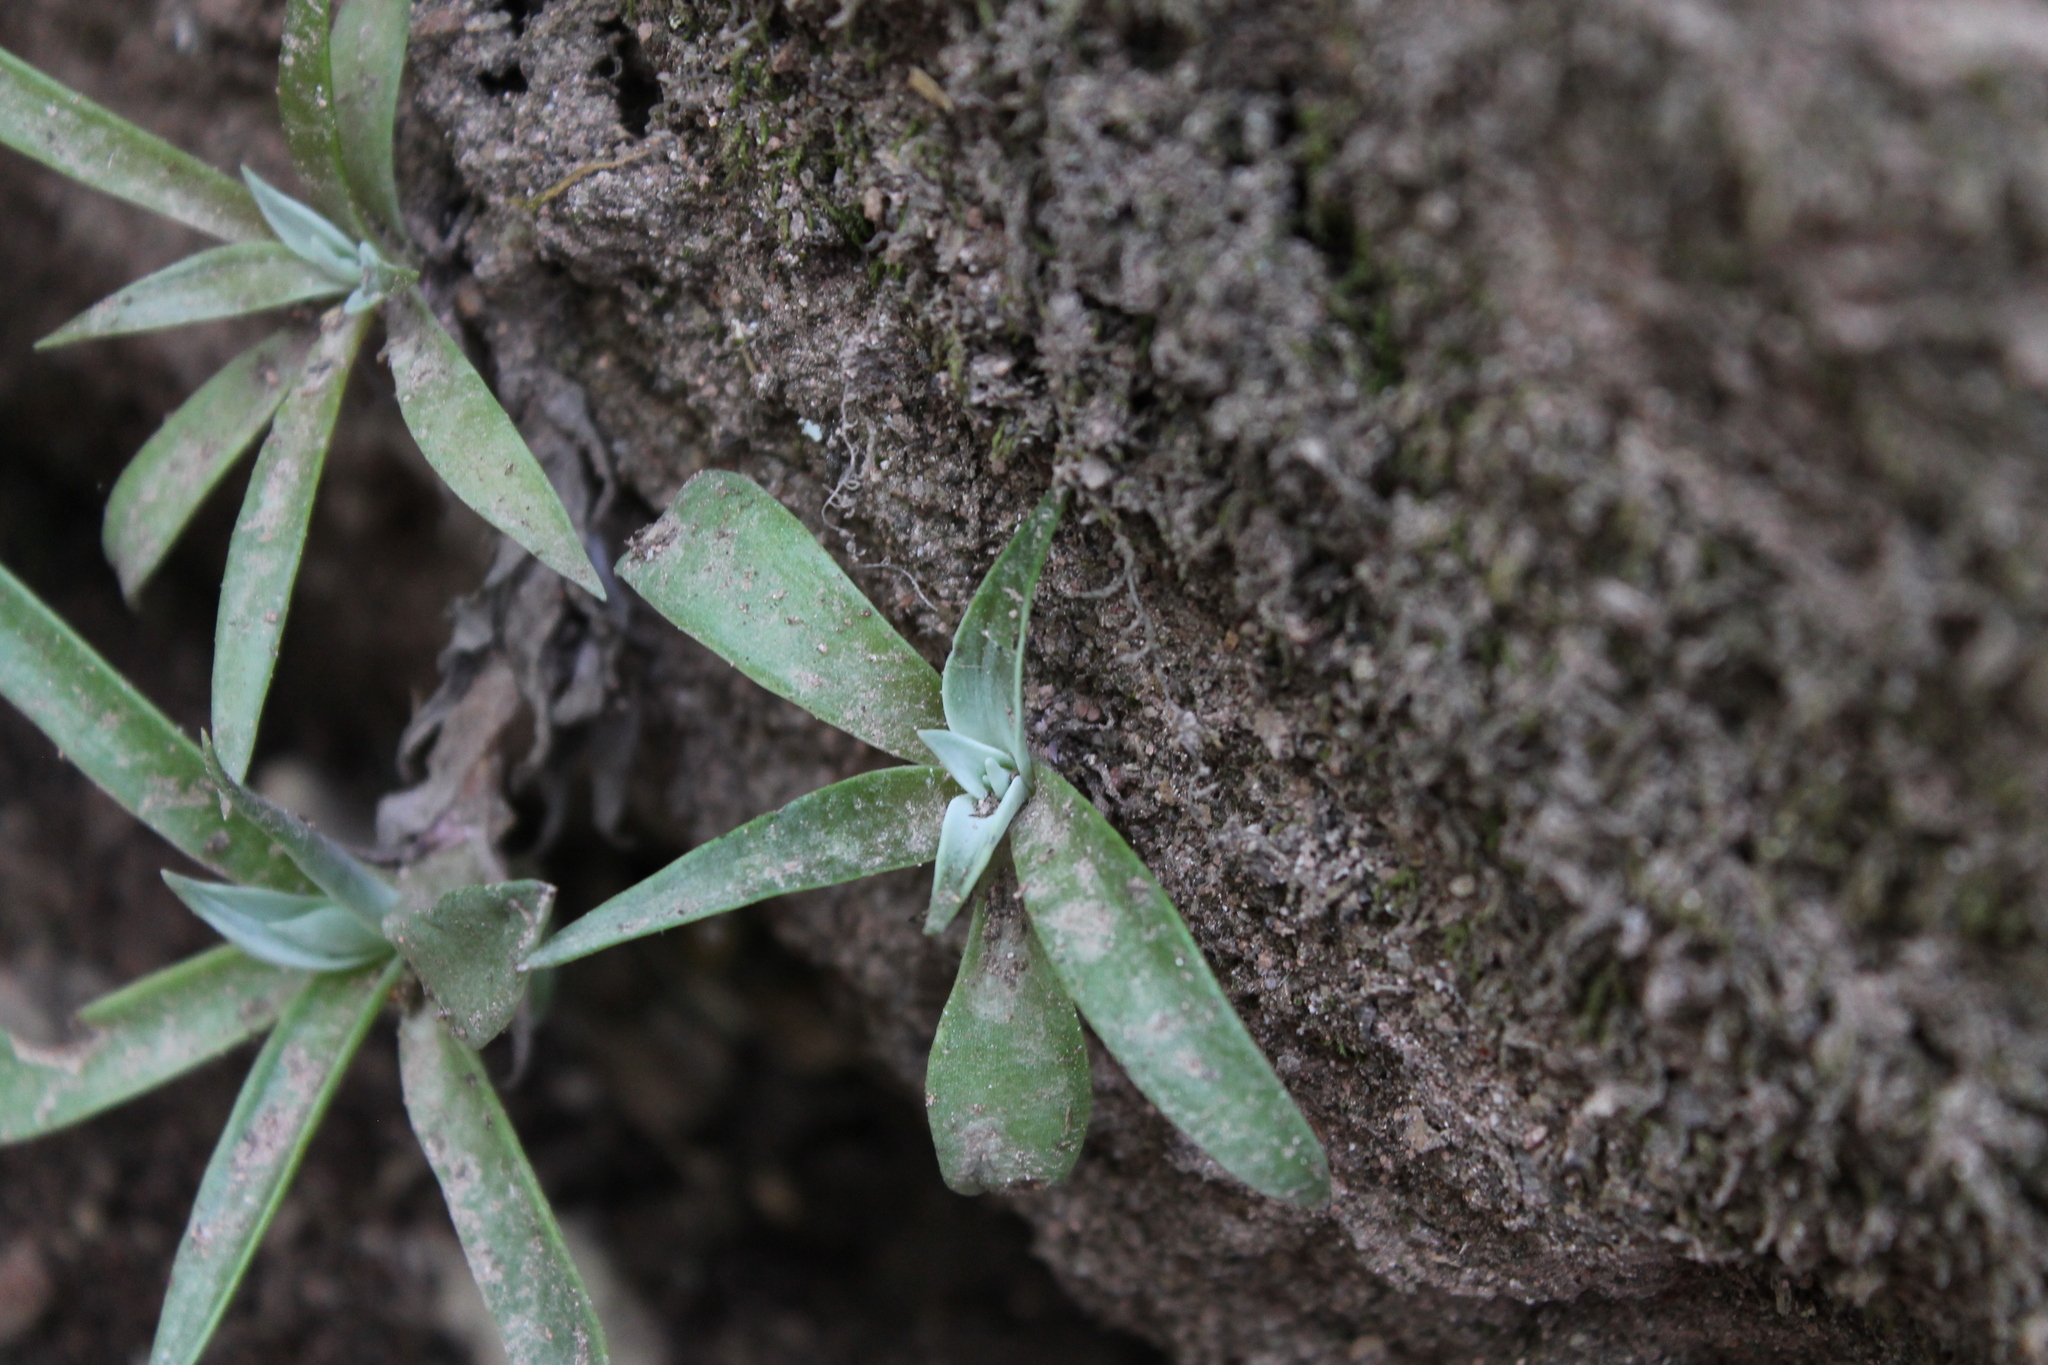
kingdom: Plantae
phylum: Tracheophyta
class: Magnoliopsida
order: Saxifragales
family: Crassulaceae
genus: Dudleya
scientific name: Dudleya lanceolata
